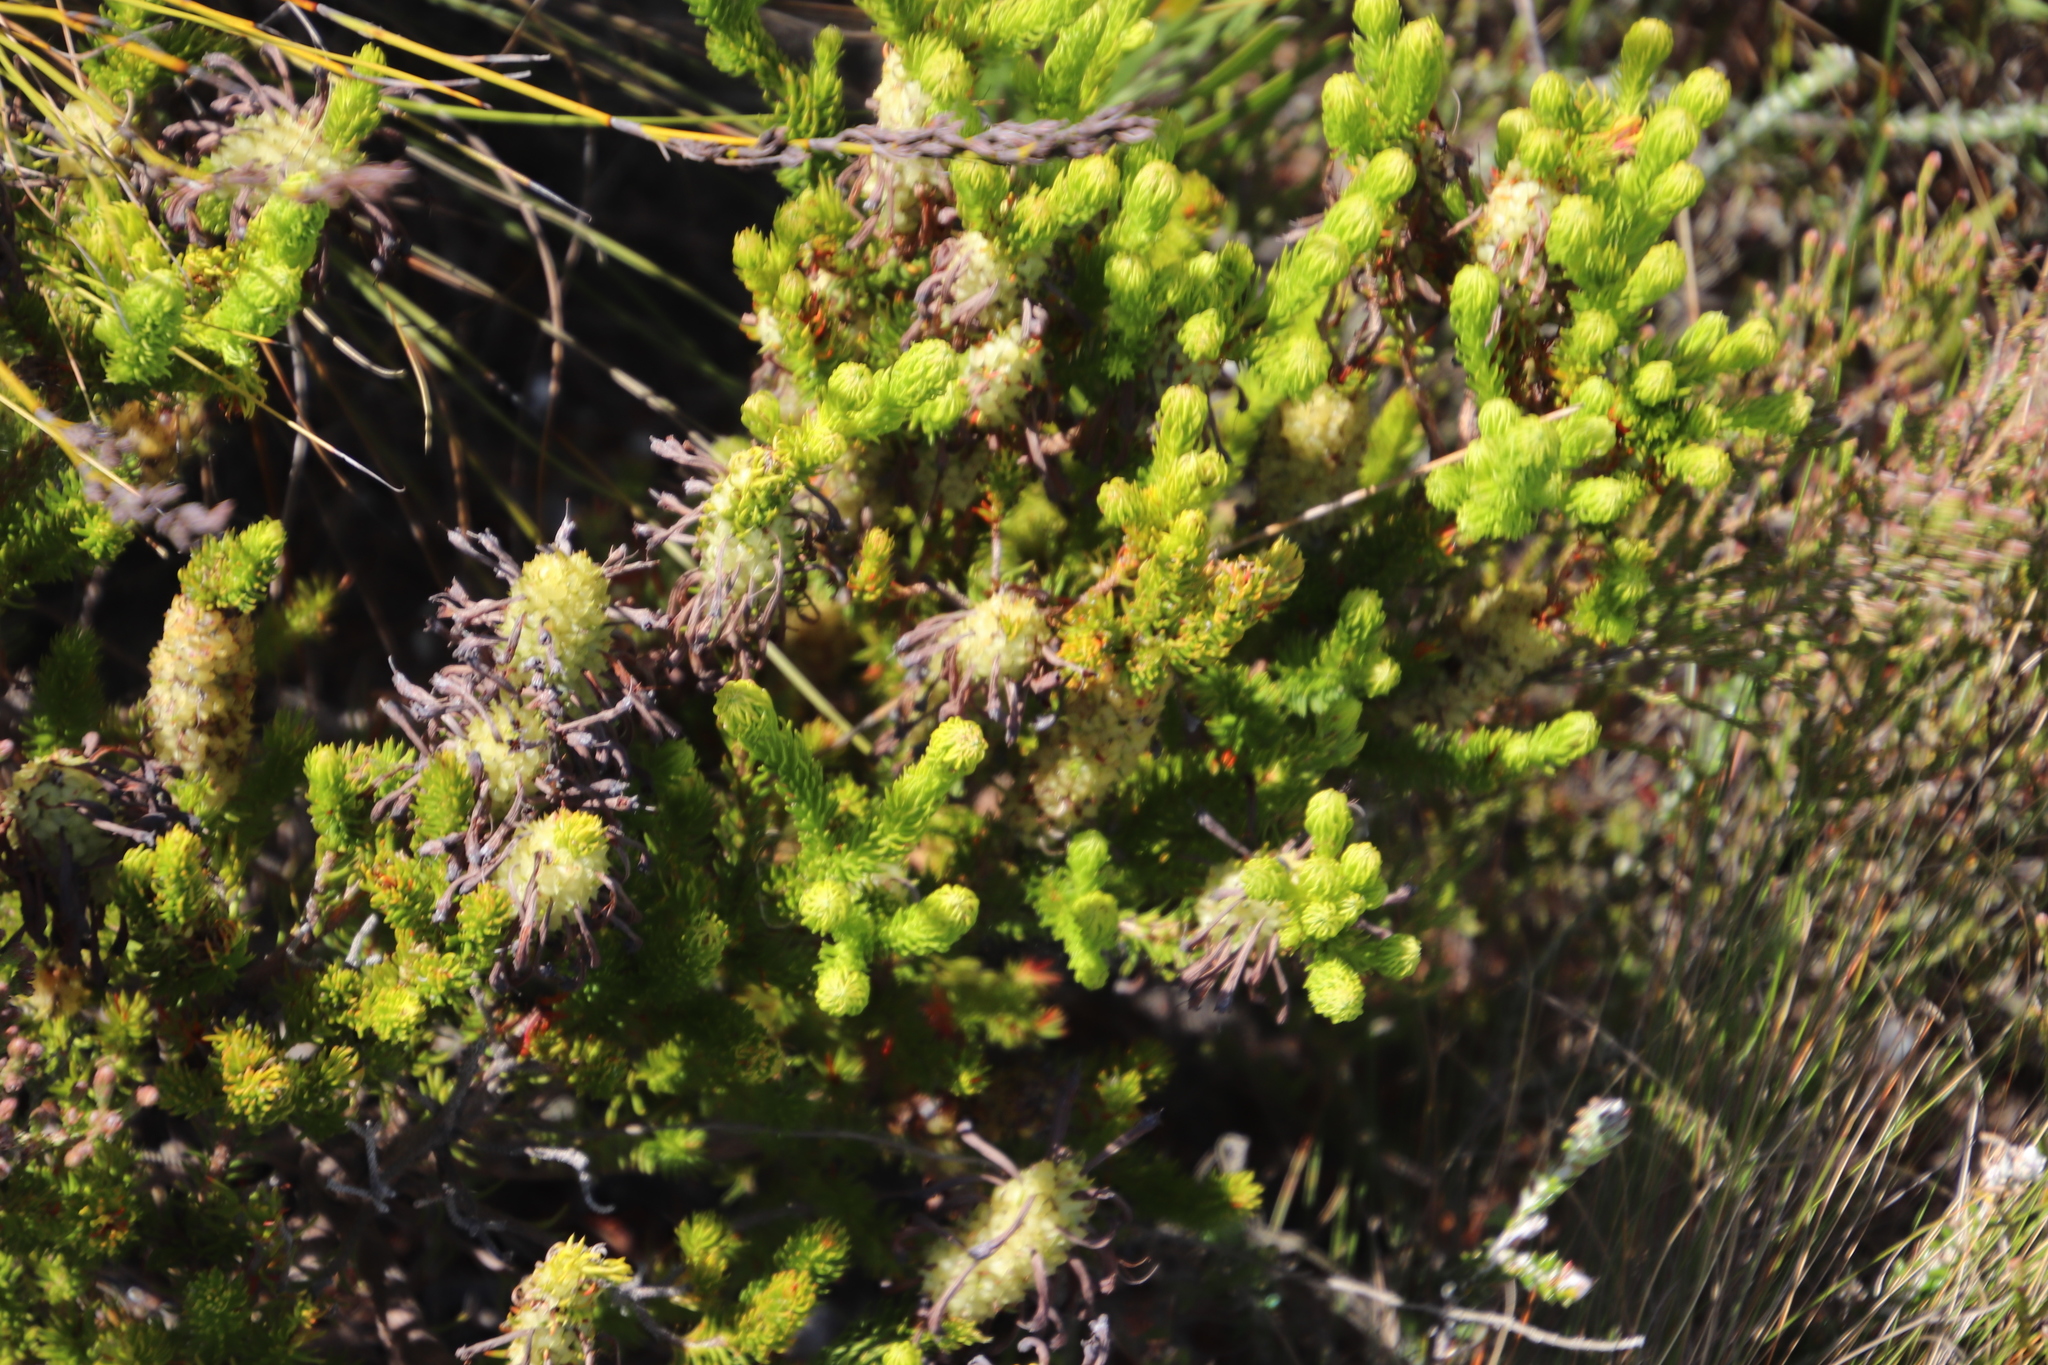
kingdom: Plantae
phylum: Tracheophyta
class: Magnoliopsida
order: Ericales
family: Ericaceae
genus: Erica
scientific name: Erica sessiliflora
